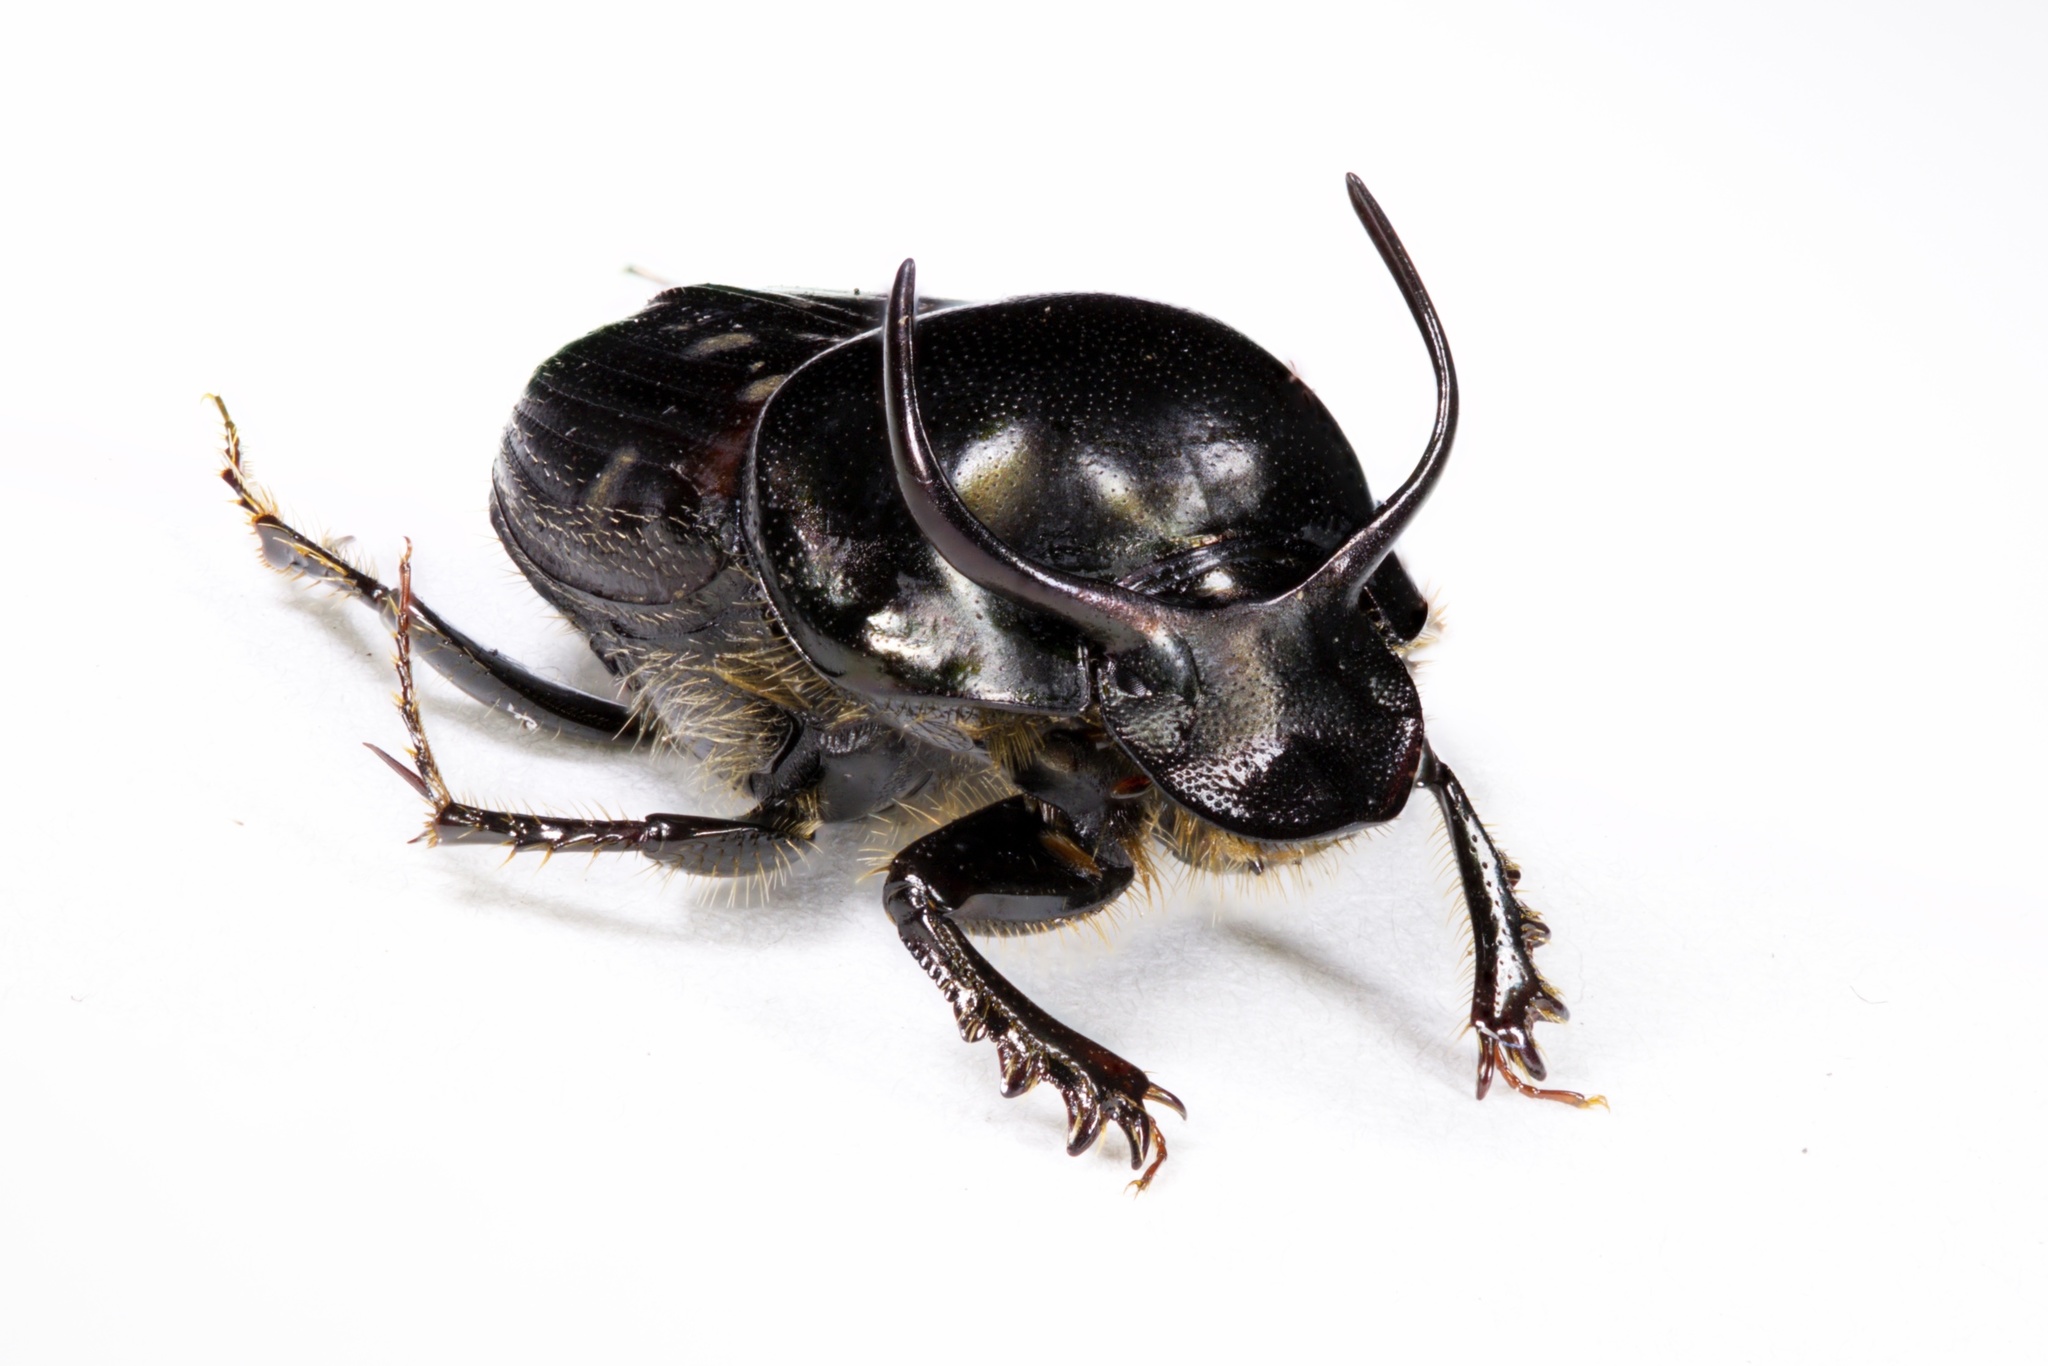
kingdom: Animalia
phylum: Arthropoda
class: Insecta
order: Coleoptera
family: Scarabaeidae
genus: Onthophagus
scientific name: Onthophagus taurus
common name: Bullhorned dung beetle
